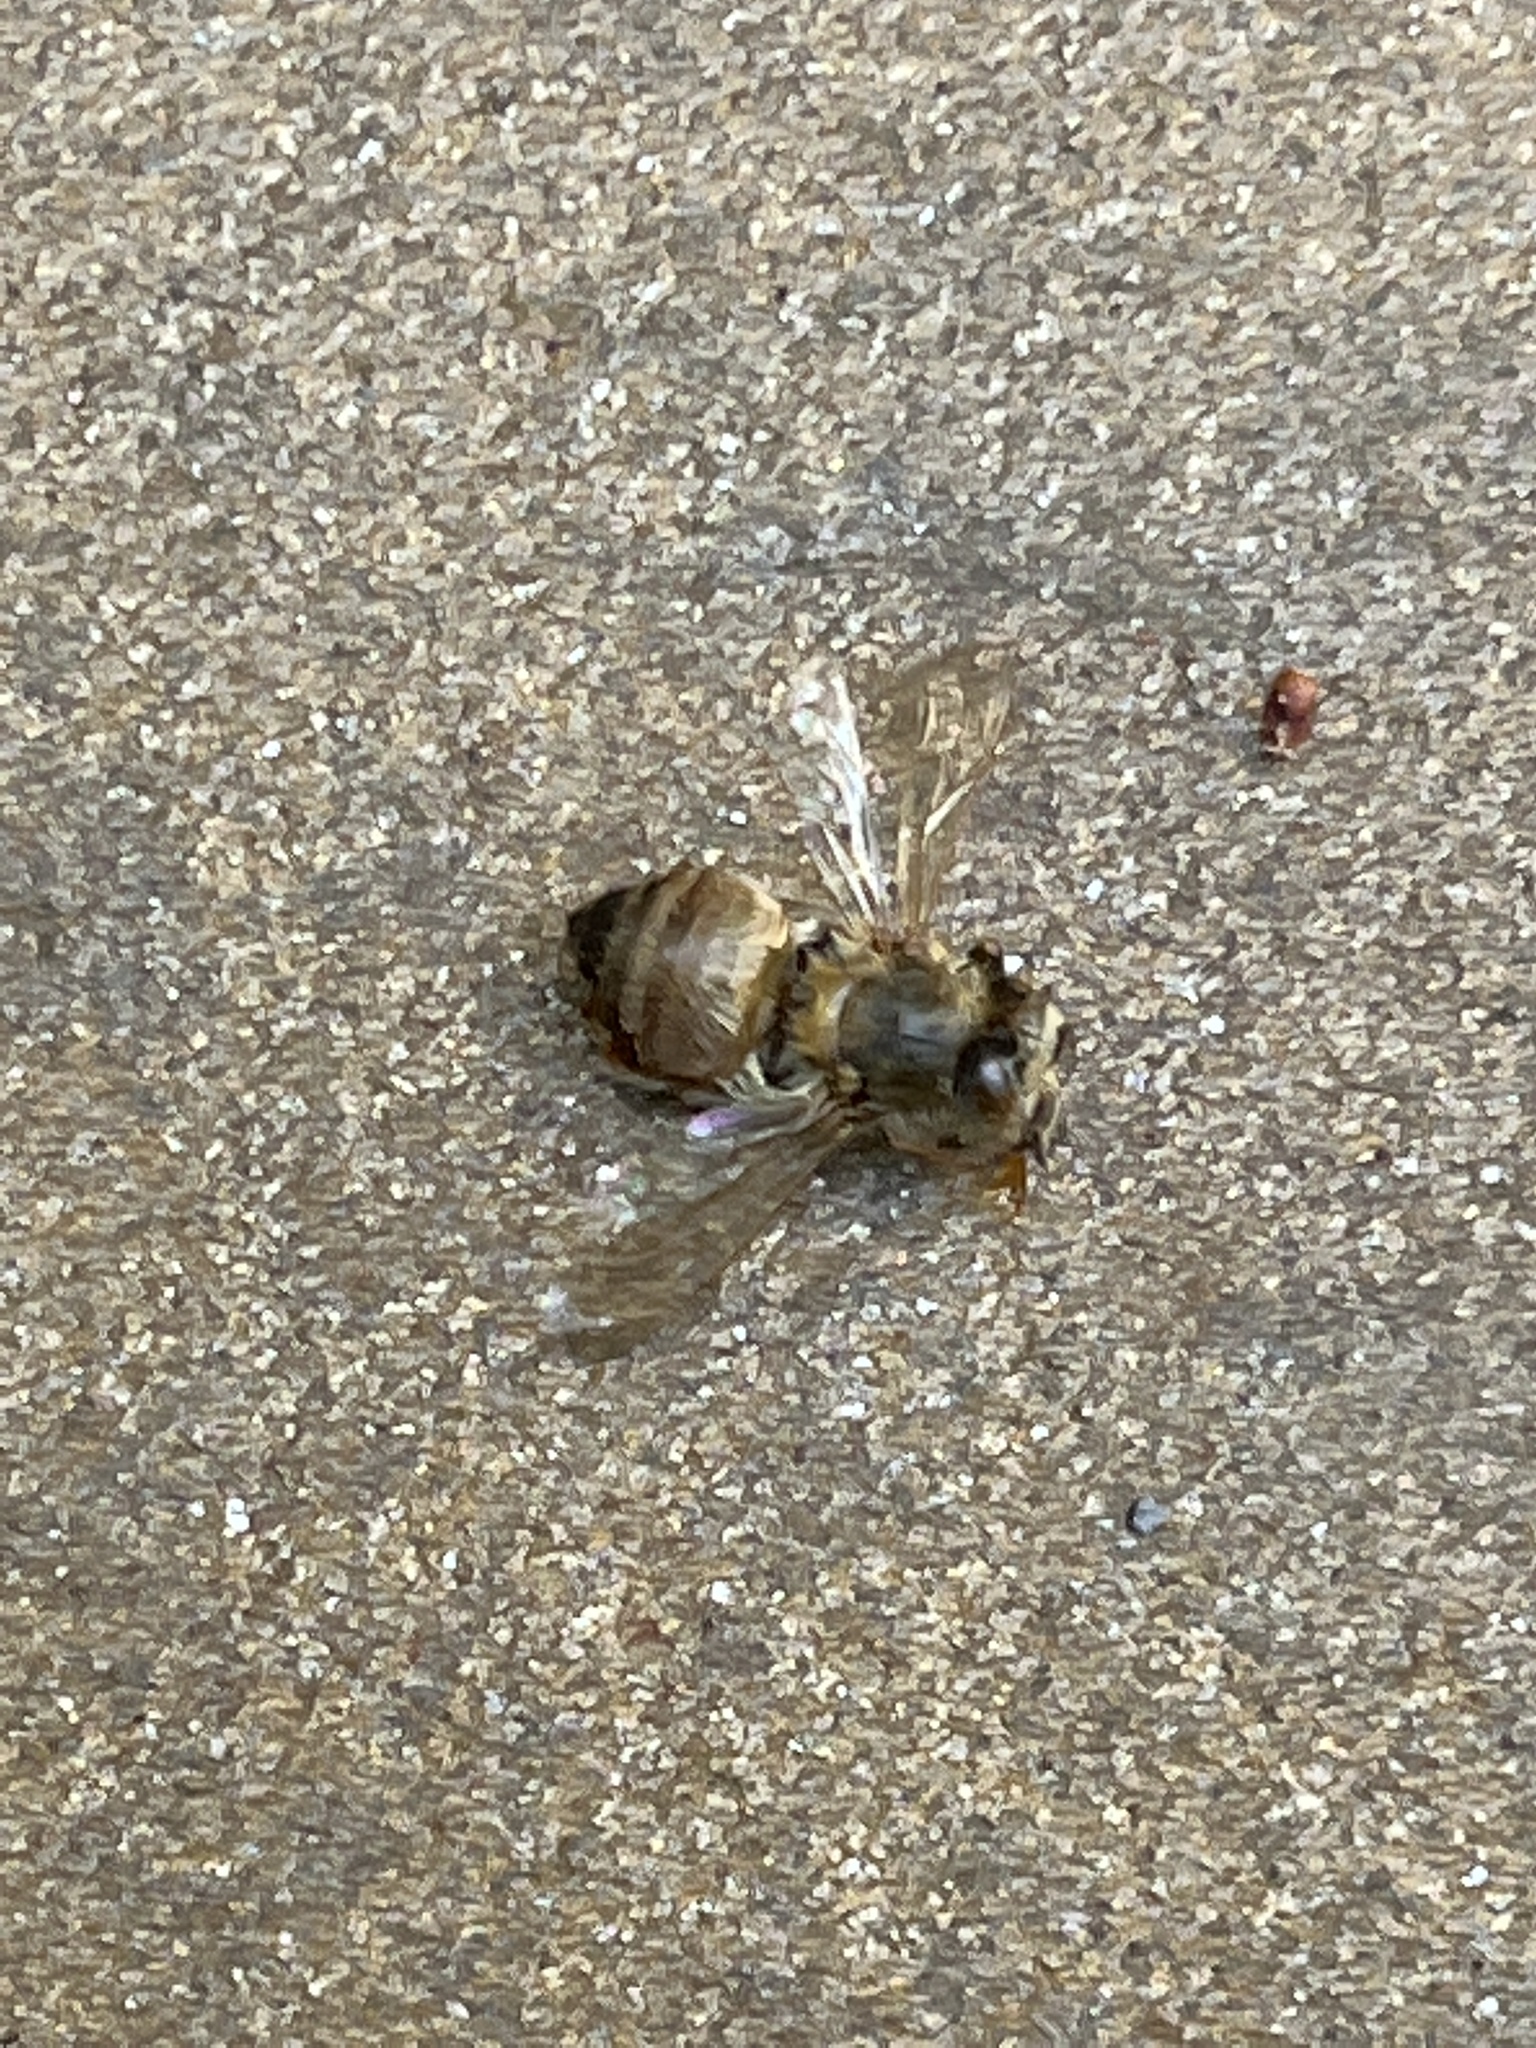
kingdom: Animalia
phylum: Arthropoda
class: Insecta
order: Hymenoptera
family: Apidae
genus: Apis
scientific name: Apis mellifera
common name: Honey bee
